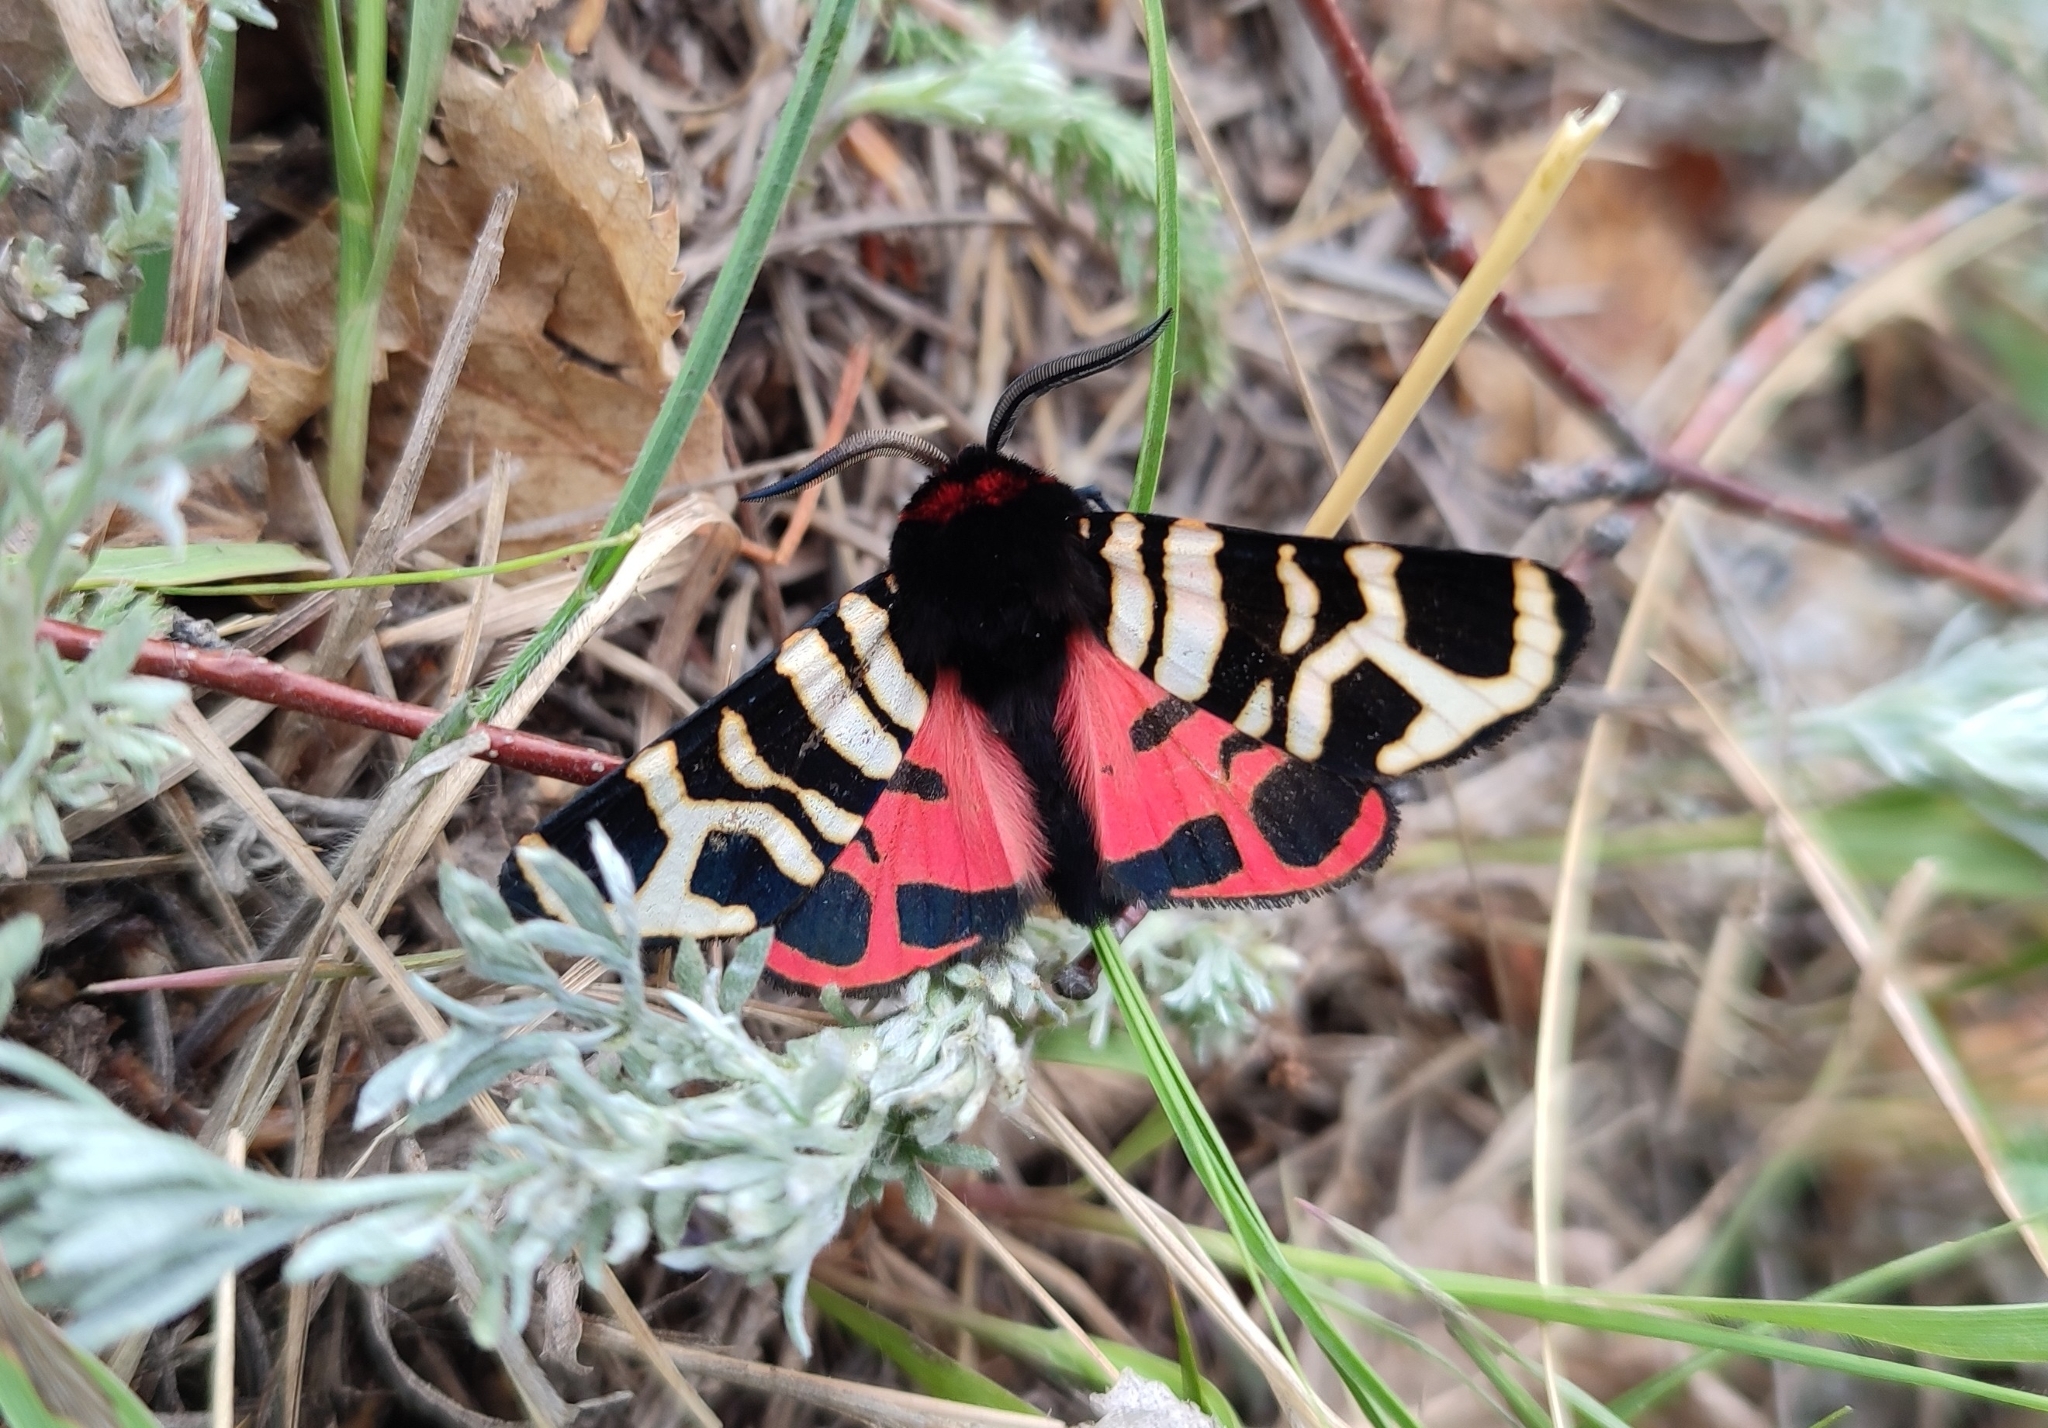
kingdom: Animalia
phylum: Arthropoda
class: Insecta
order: Lepidoptera
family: Erebidae
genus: Eucharia
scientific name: Eucharia festiva
